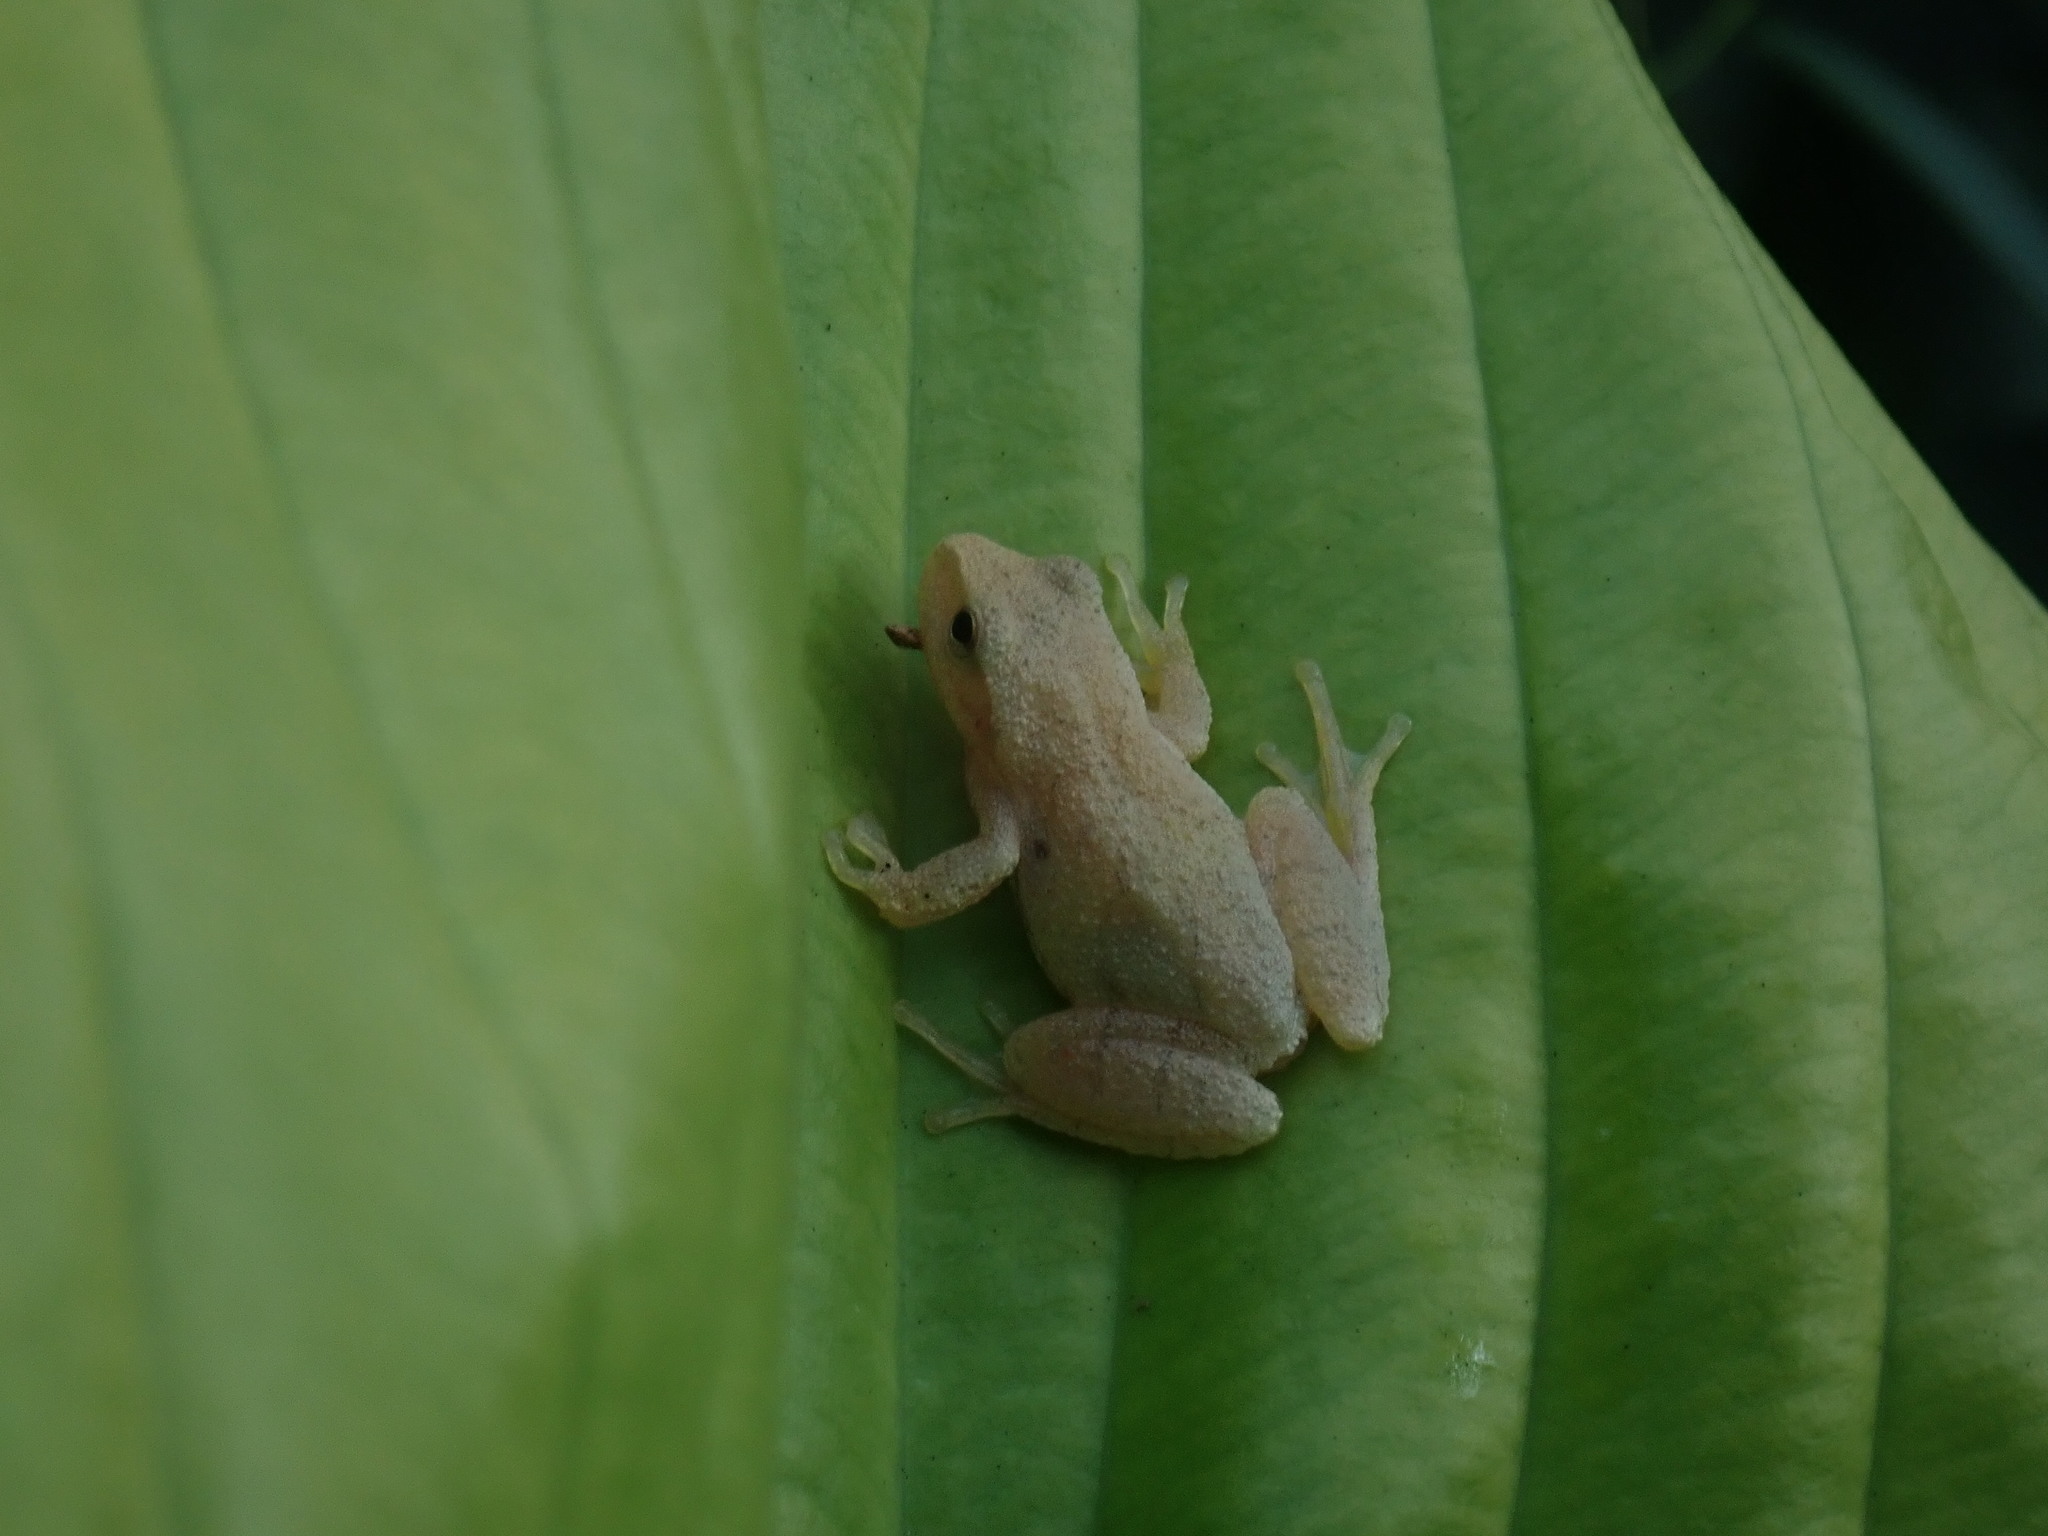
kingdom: Animalia
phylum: Chordata
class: Amphibia
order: Anura
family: Hylidae
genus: Pseudacris
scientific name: Pseudacris crucifer
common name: Spring peeper
